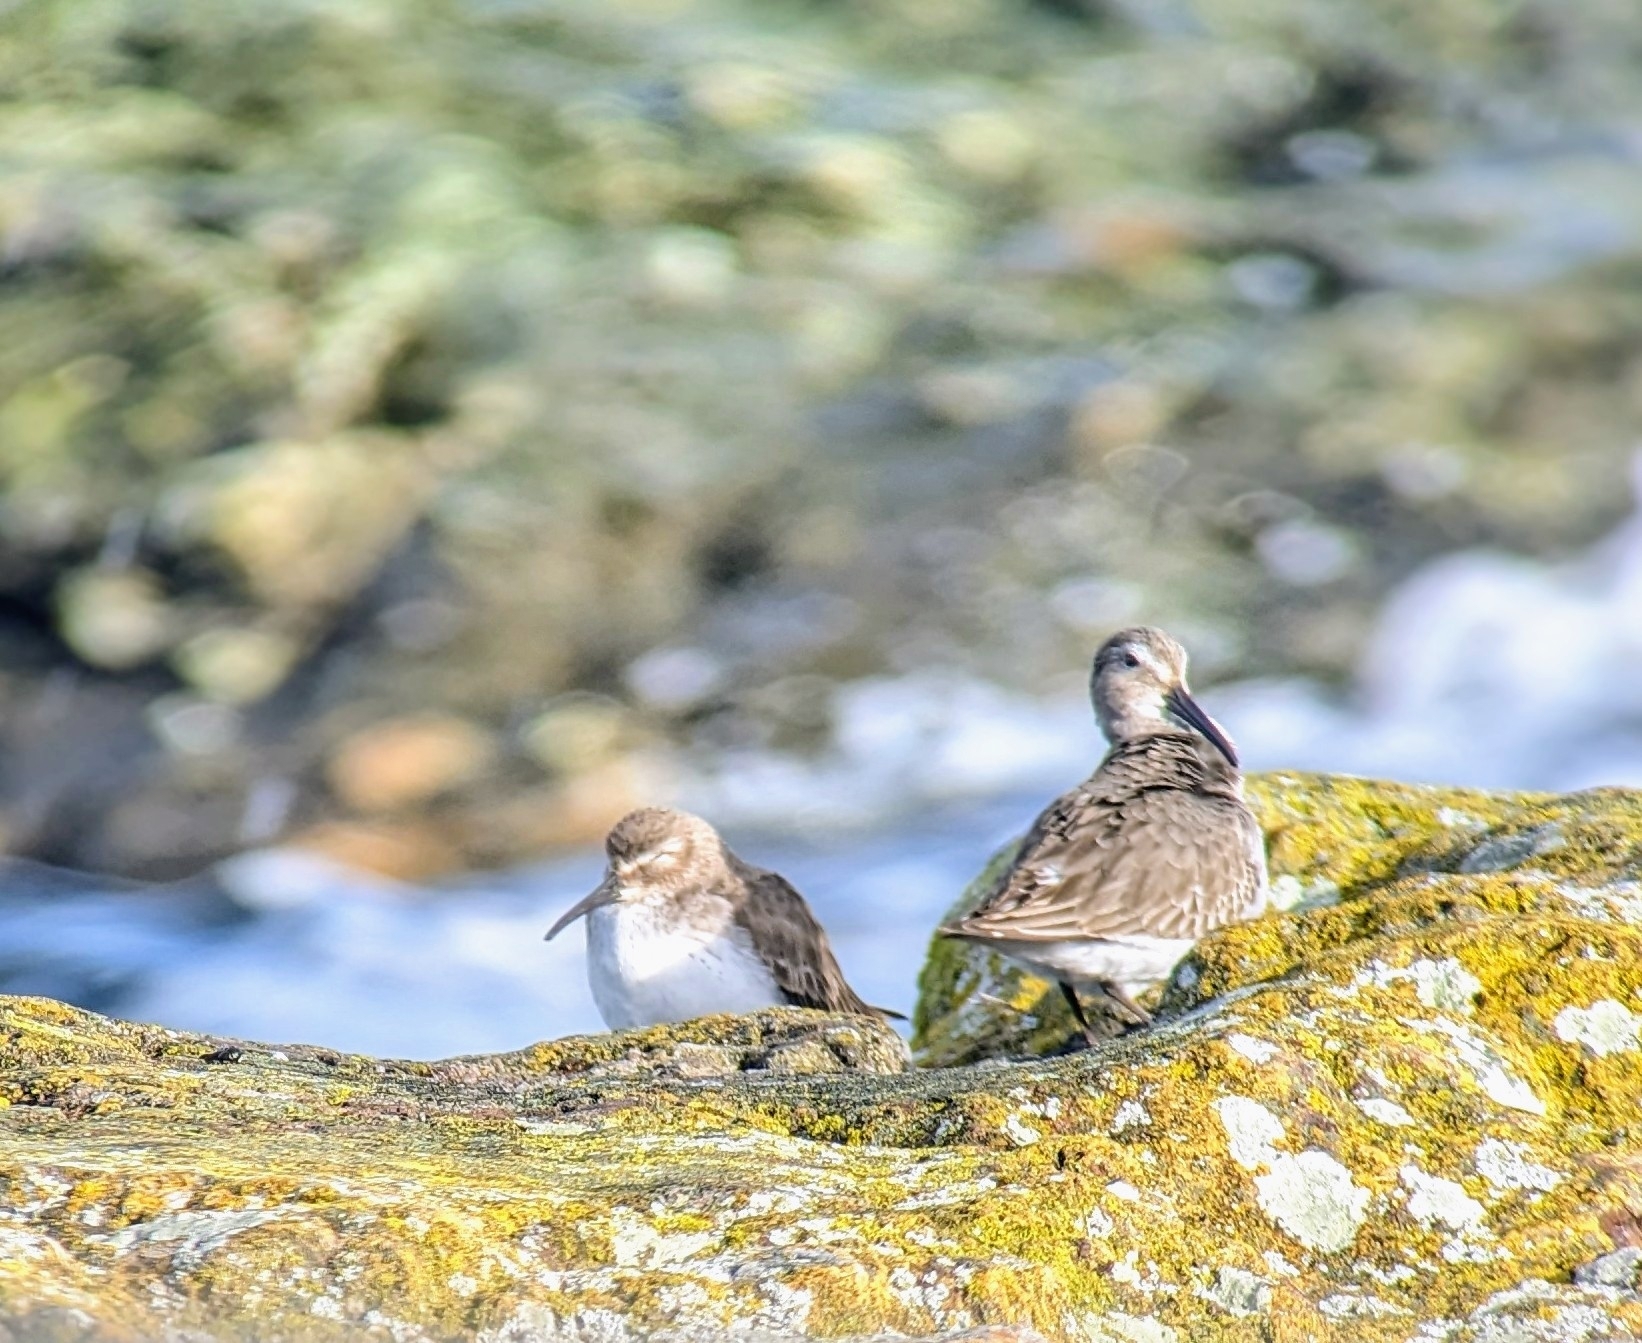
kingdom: Animalia
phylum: Chordata
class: Aves
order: Charadriiformes
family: Scolopacidae
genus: Calidris
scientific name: Calidris alpina
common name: Dunlin
